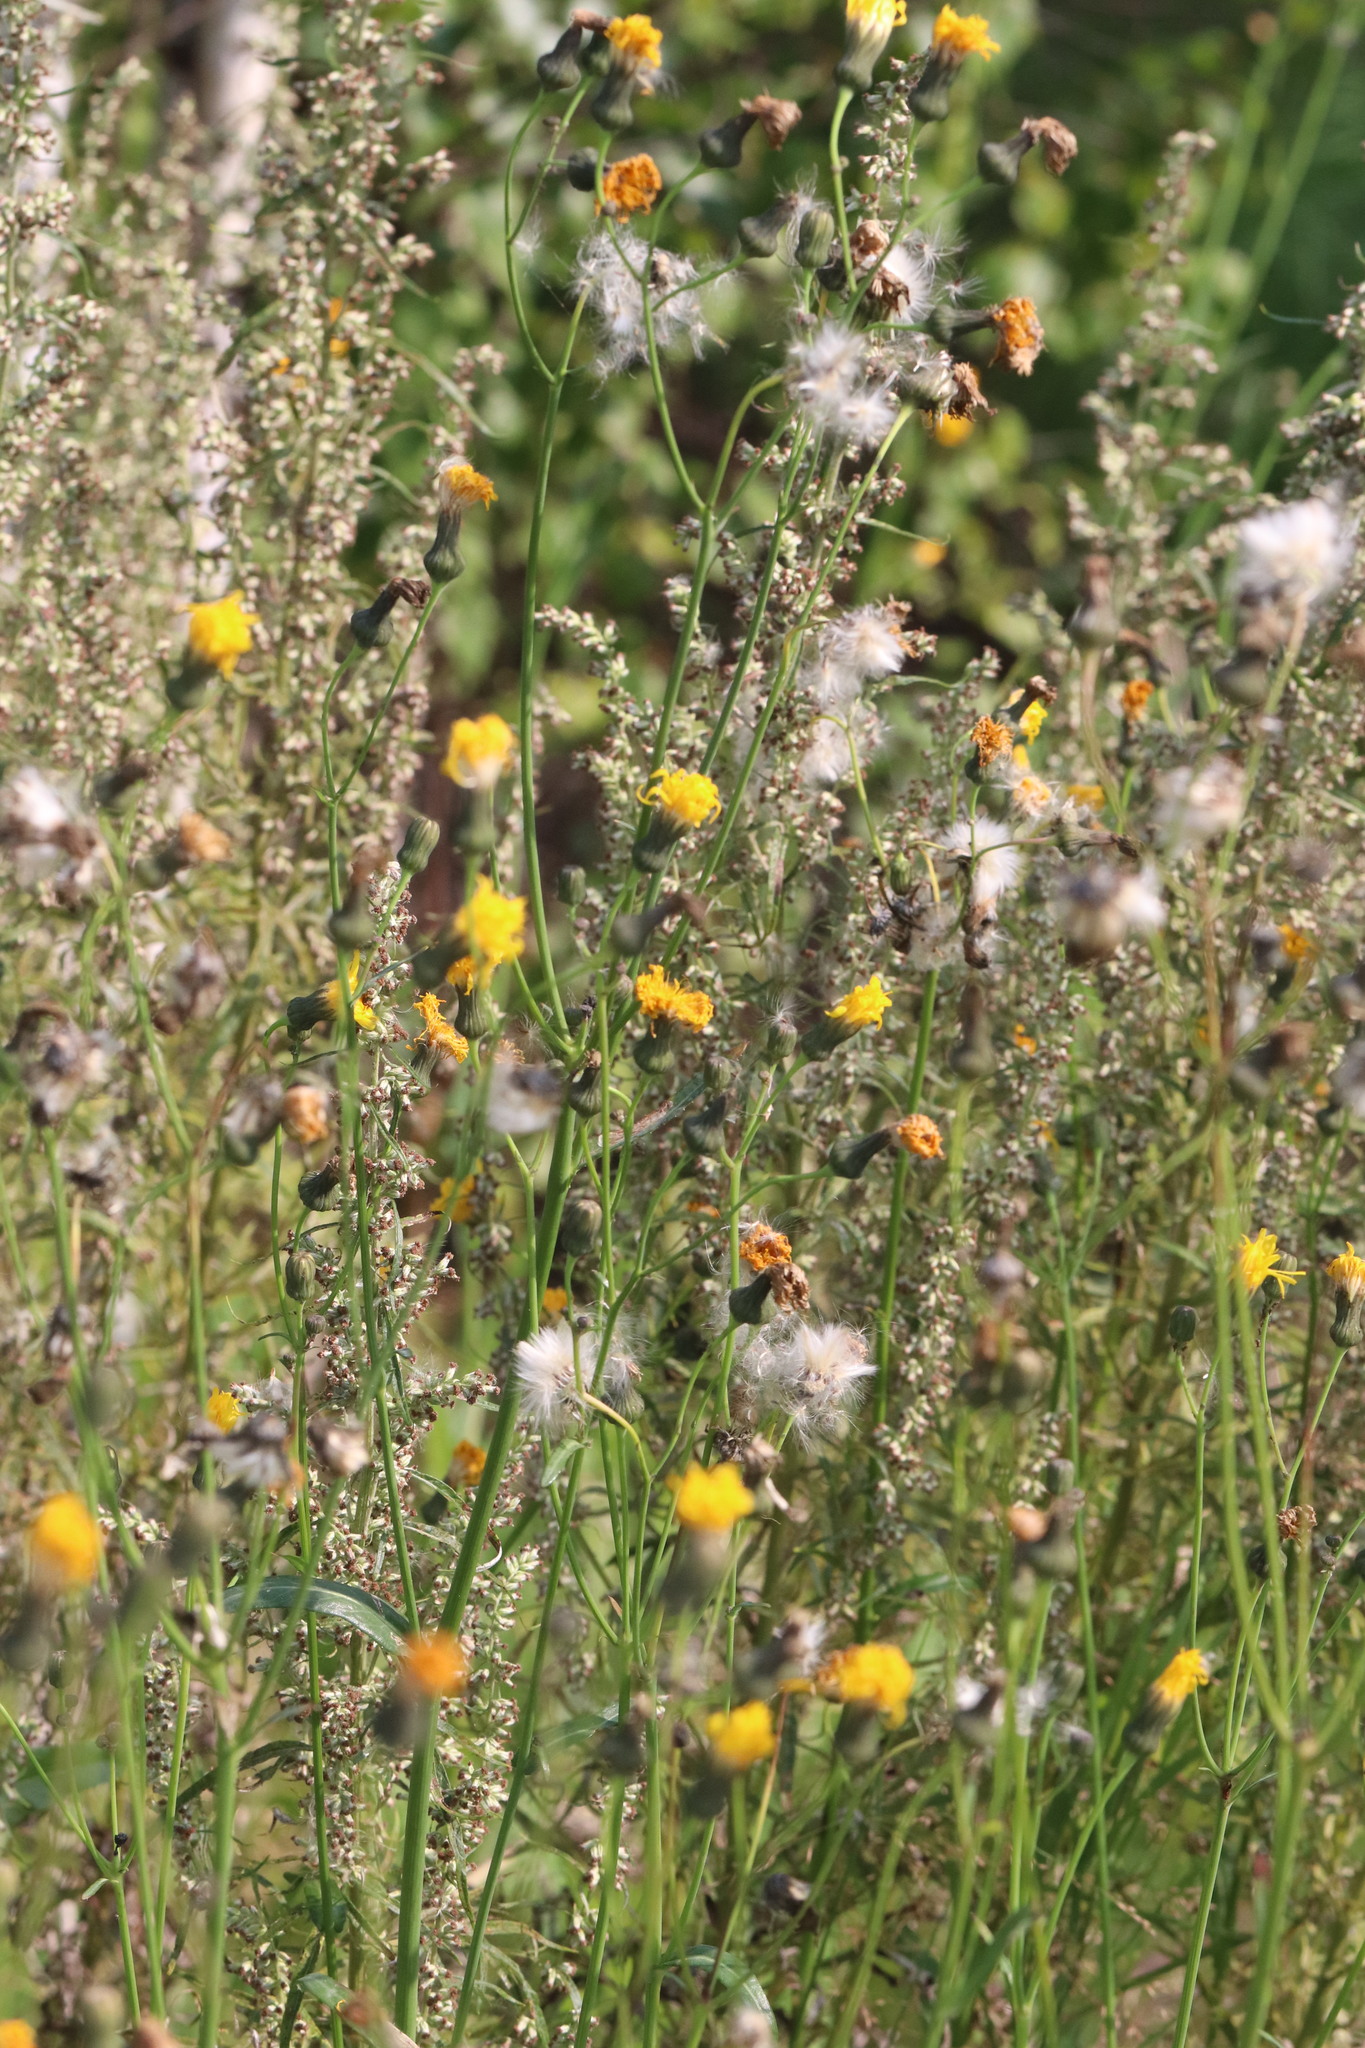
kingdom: Plantae
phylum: Tracheophyta
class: Magnoliopsida
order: Asterales
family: Asteraceae
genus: Sonchus
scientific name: Sonchus arvensis
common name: Perennial sow-thistle
